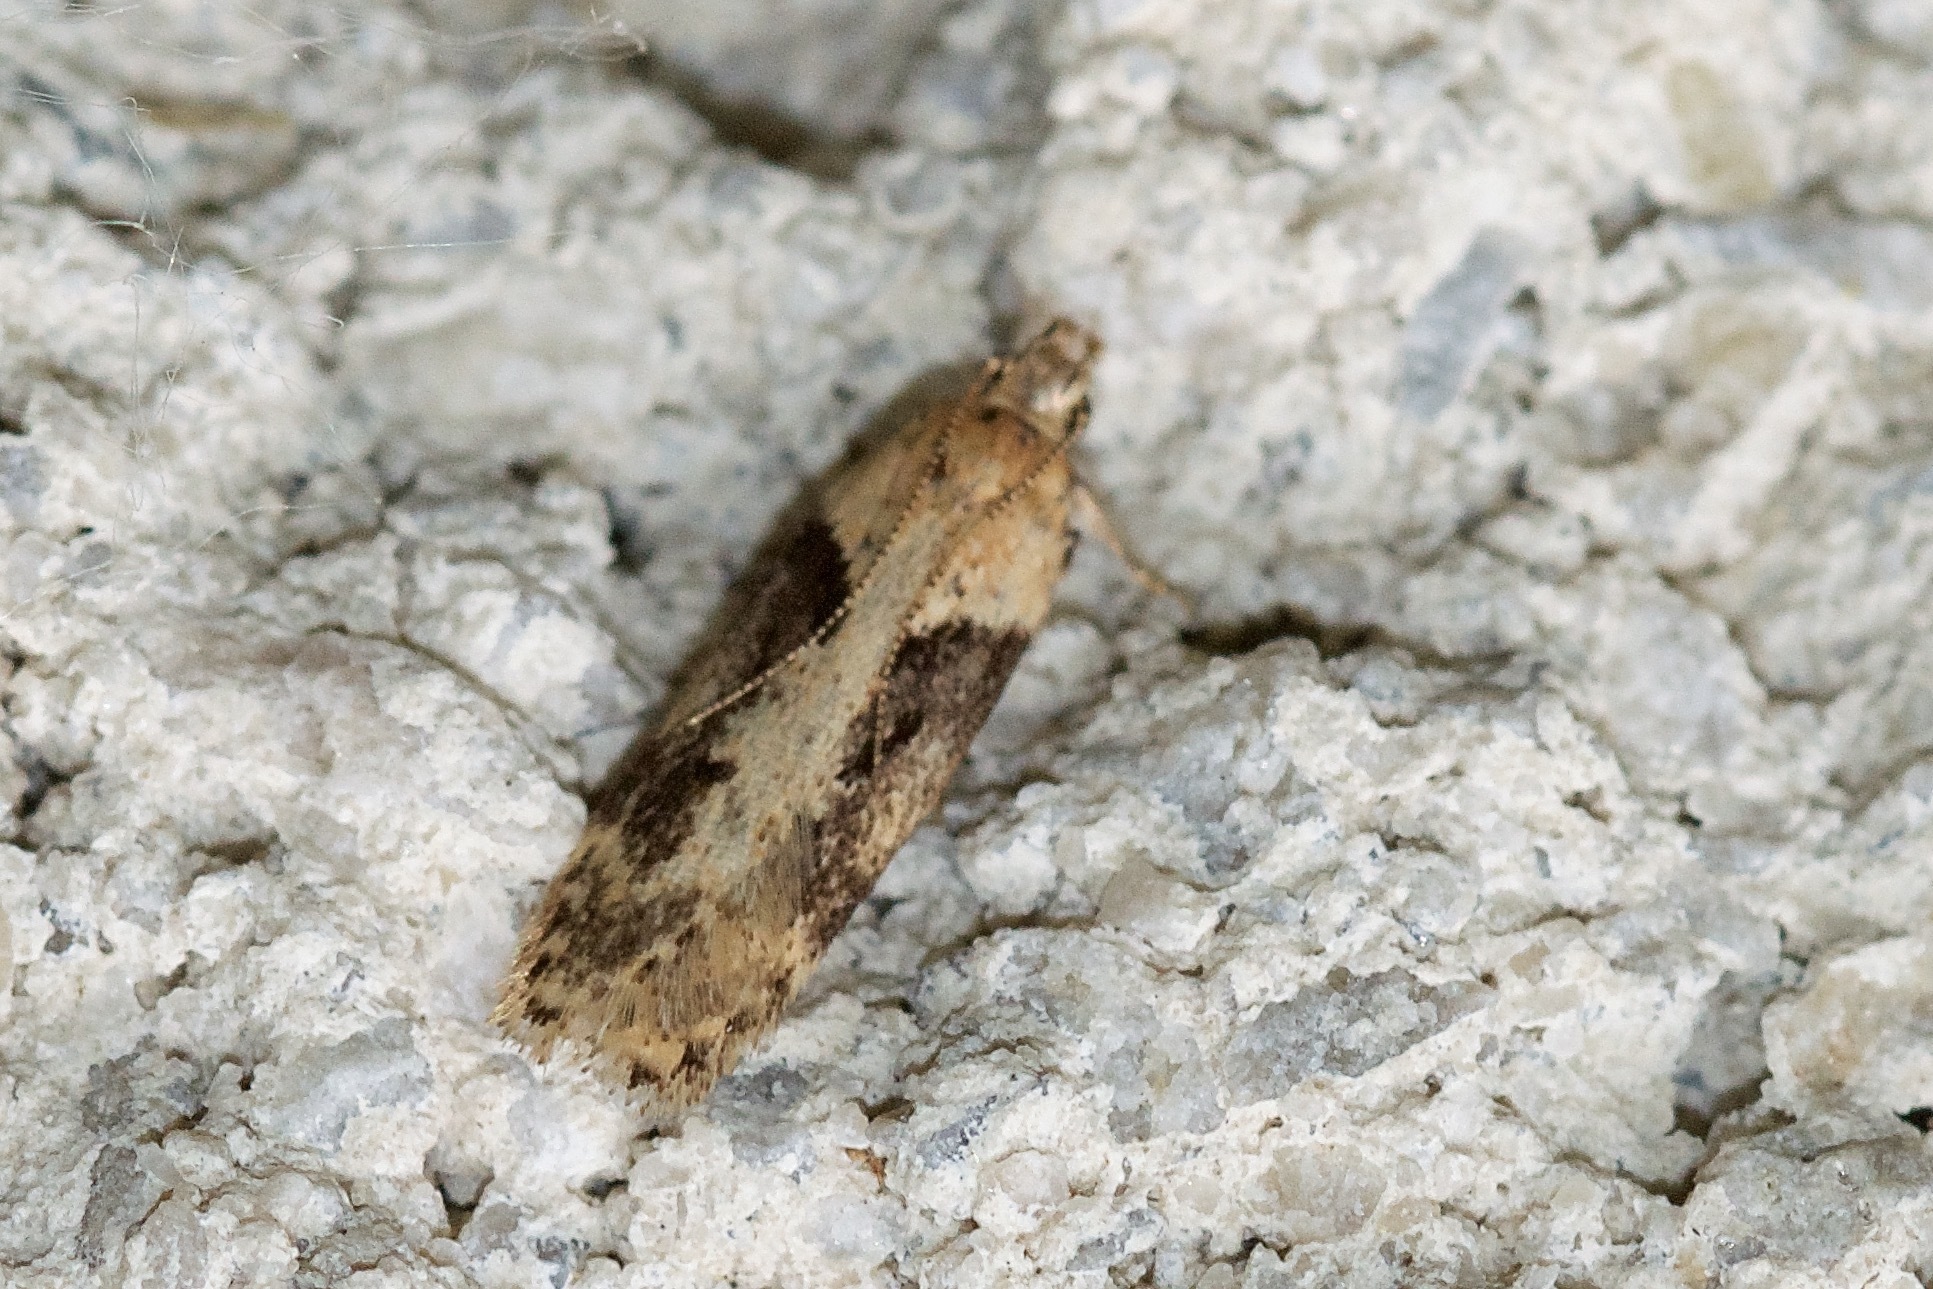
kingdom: Animalia
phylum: Arthropoda
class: Insecta
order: Lepidoptera
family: Gelechiidae
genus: Chionodes
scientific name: Chionodes mediofuscella
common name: Black-smudged chionodes moth
